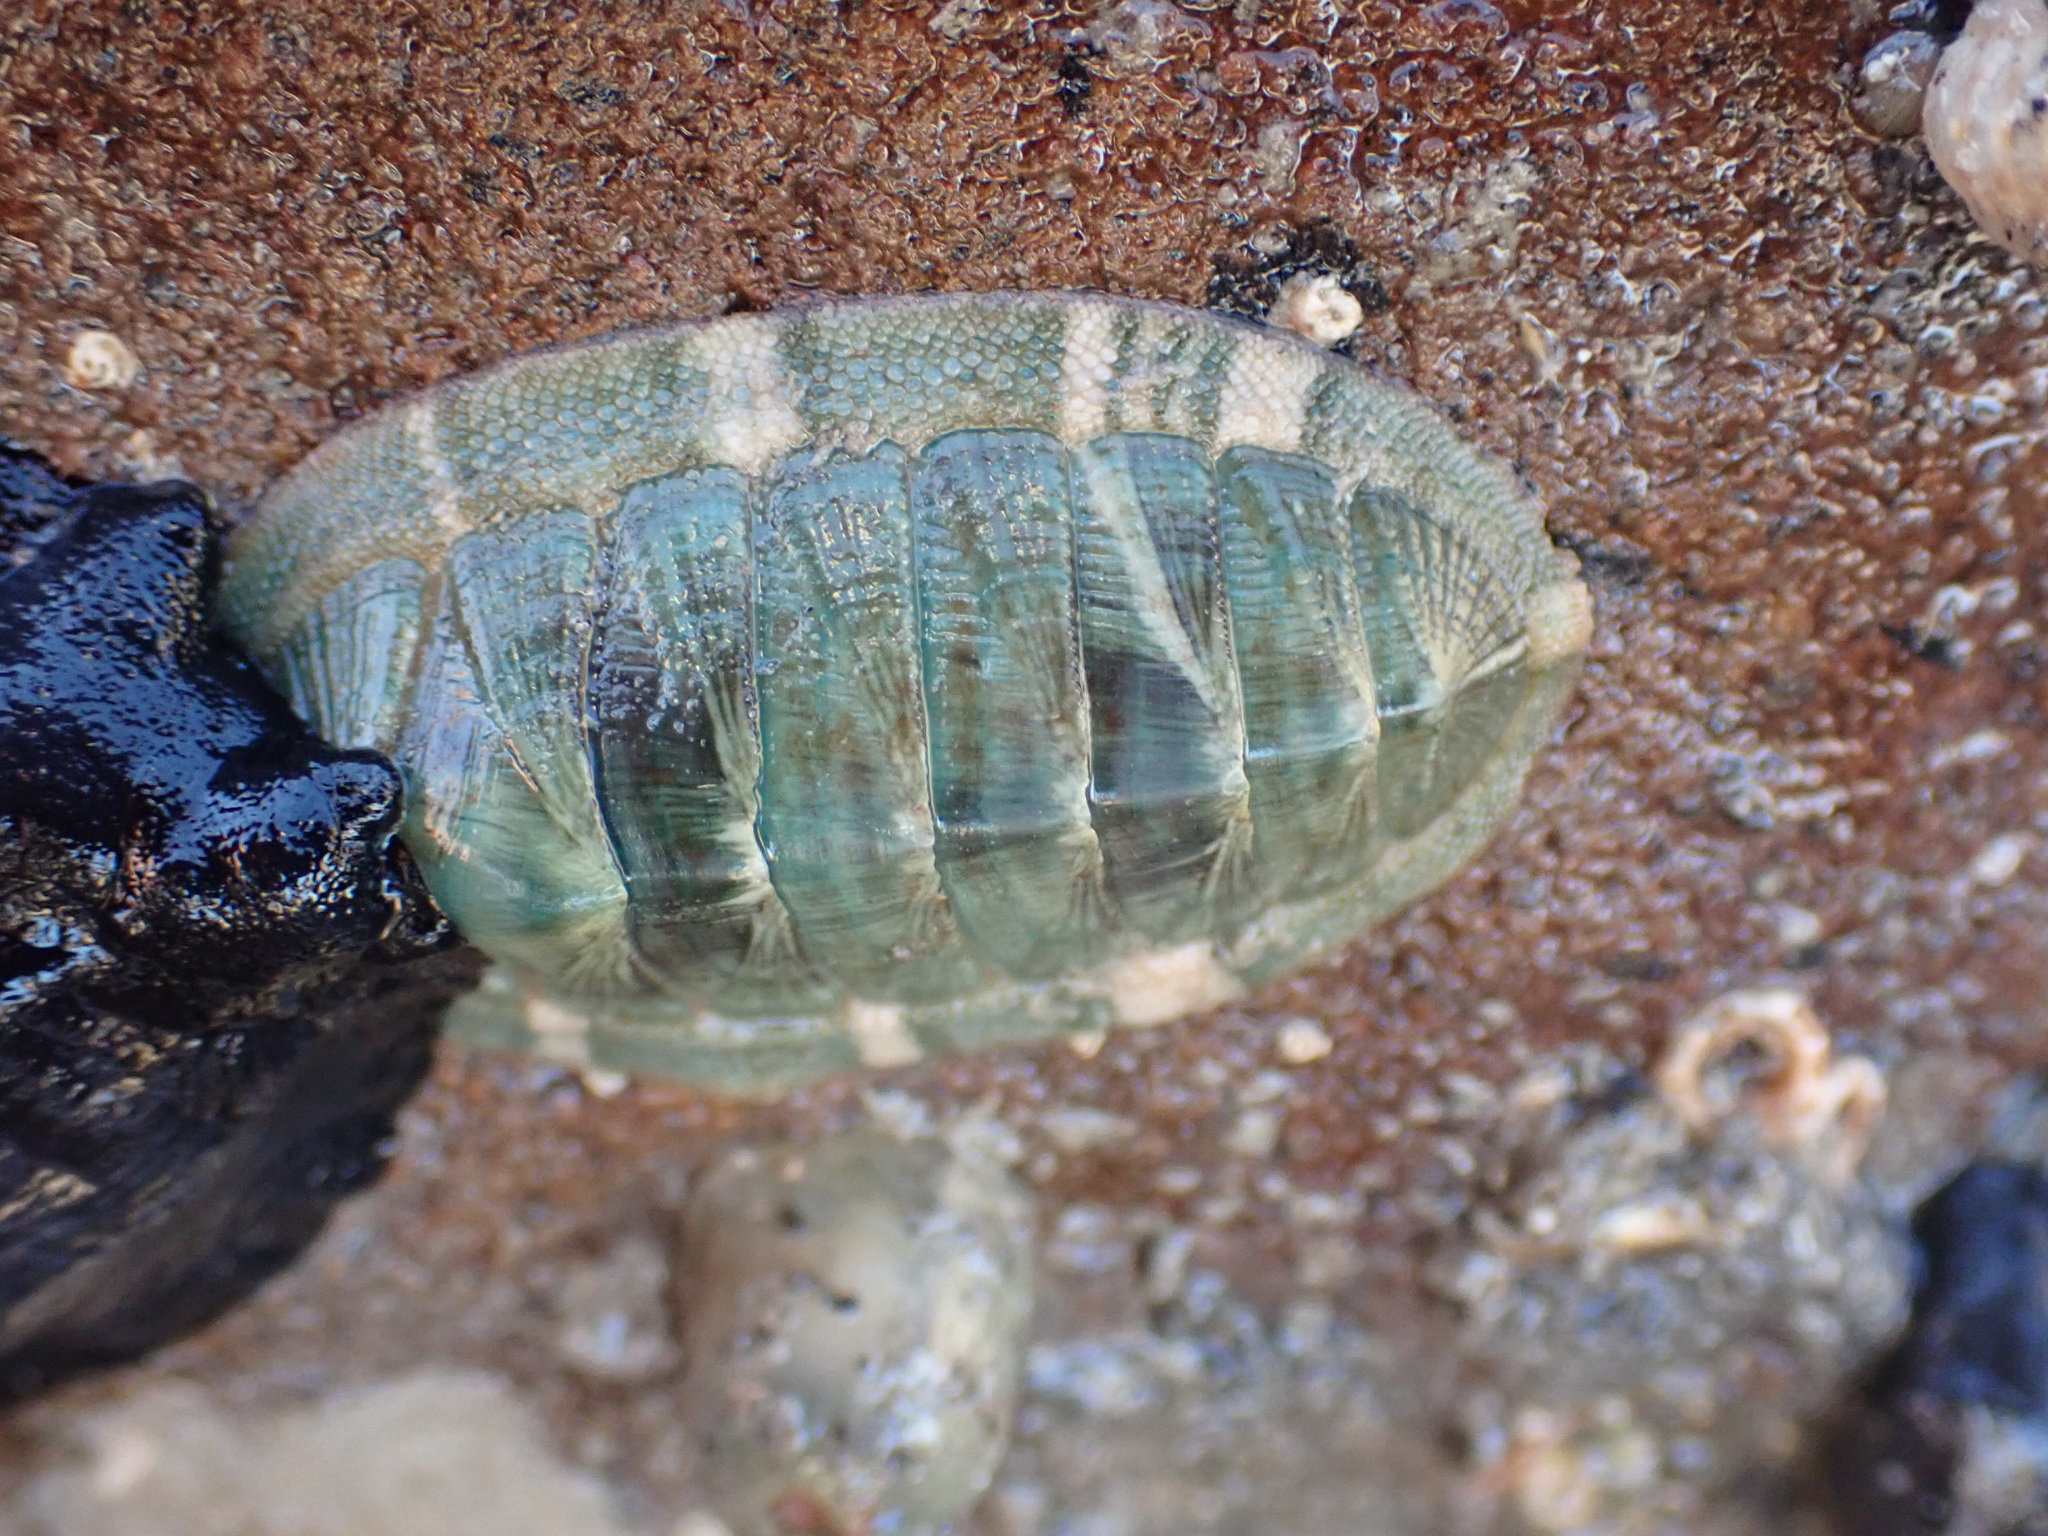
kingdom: Animalia
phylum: Mollusca
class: Polyplacophora
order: Chitonida
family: Chitonidae
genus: Rhyssoplax
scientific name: Rhyssoplax aerea
